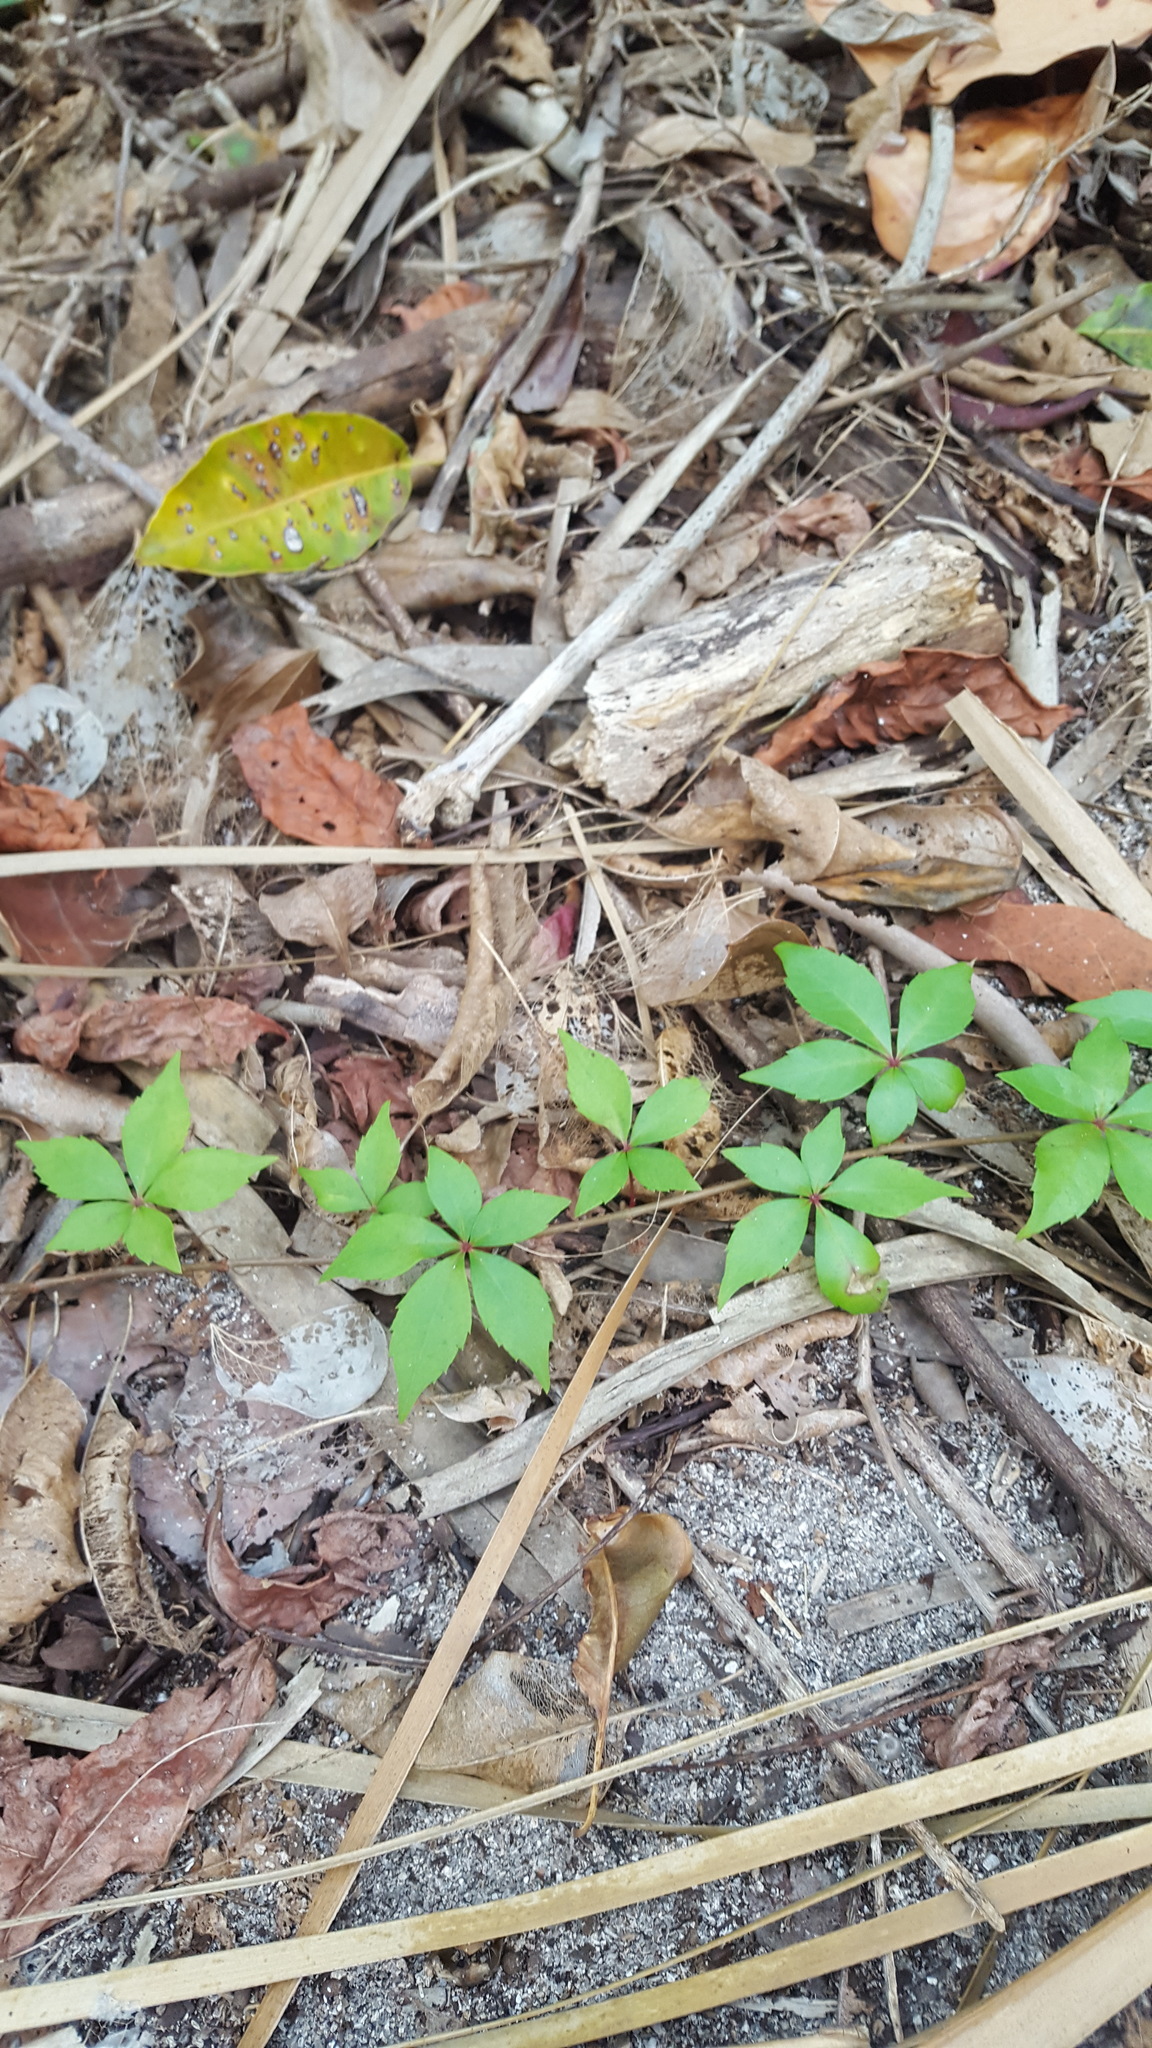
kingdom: Plantae
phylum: Tracheophyta
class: Magnoliopsida
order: Vitales
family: Vitaceae
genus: Parthenocissus
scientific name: Parthenocissus quinquefolia
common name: Virginia-creeper
